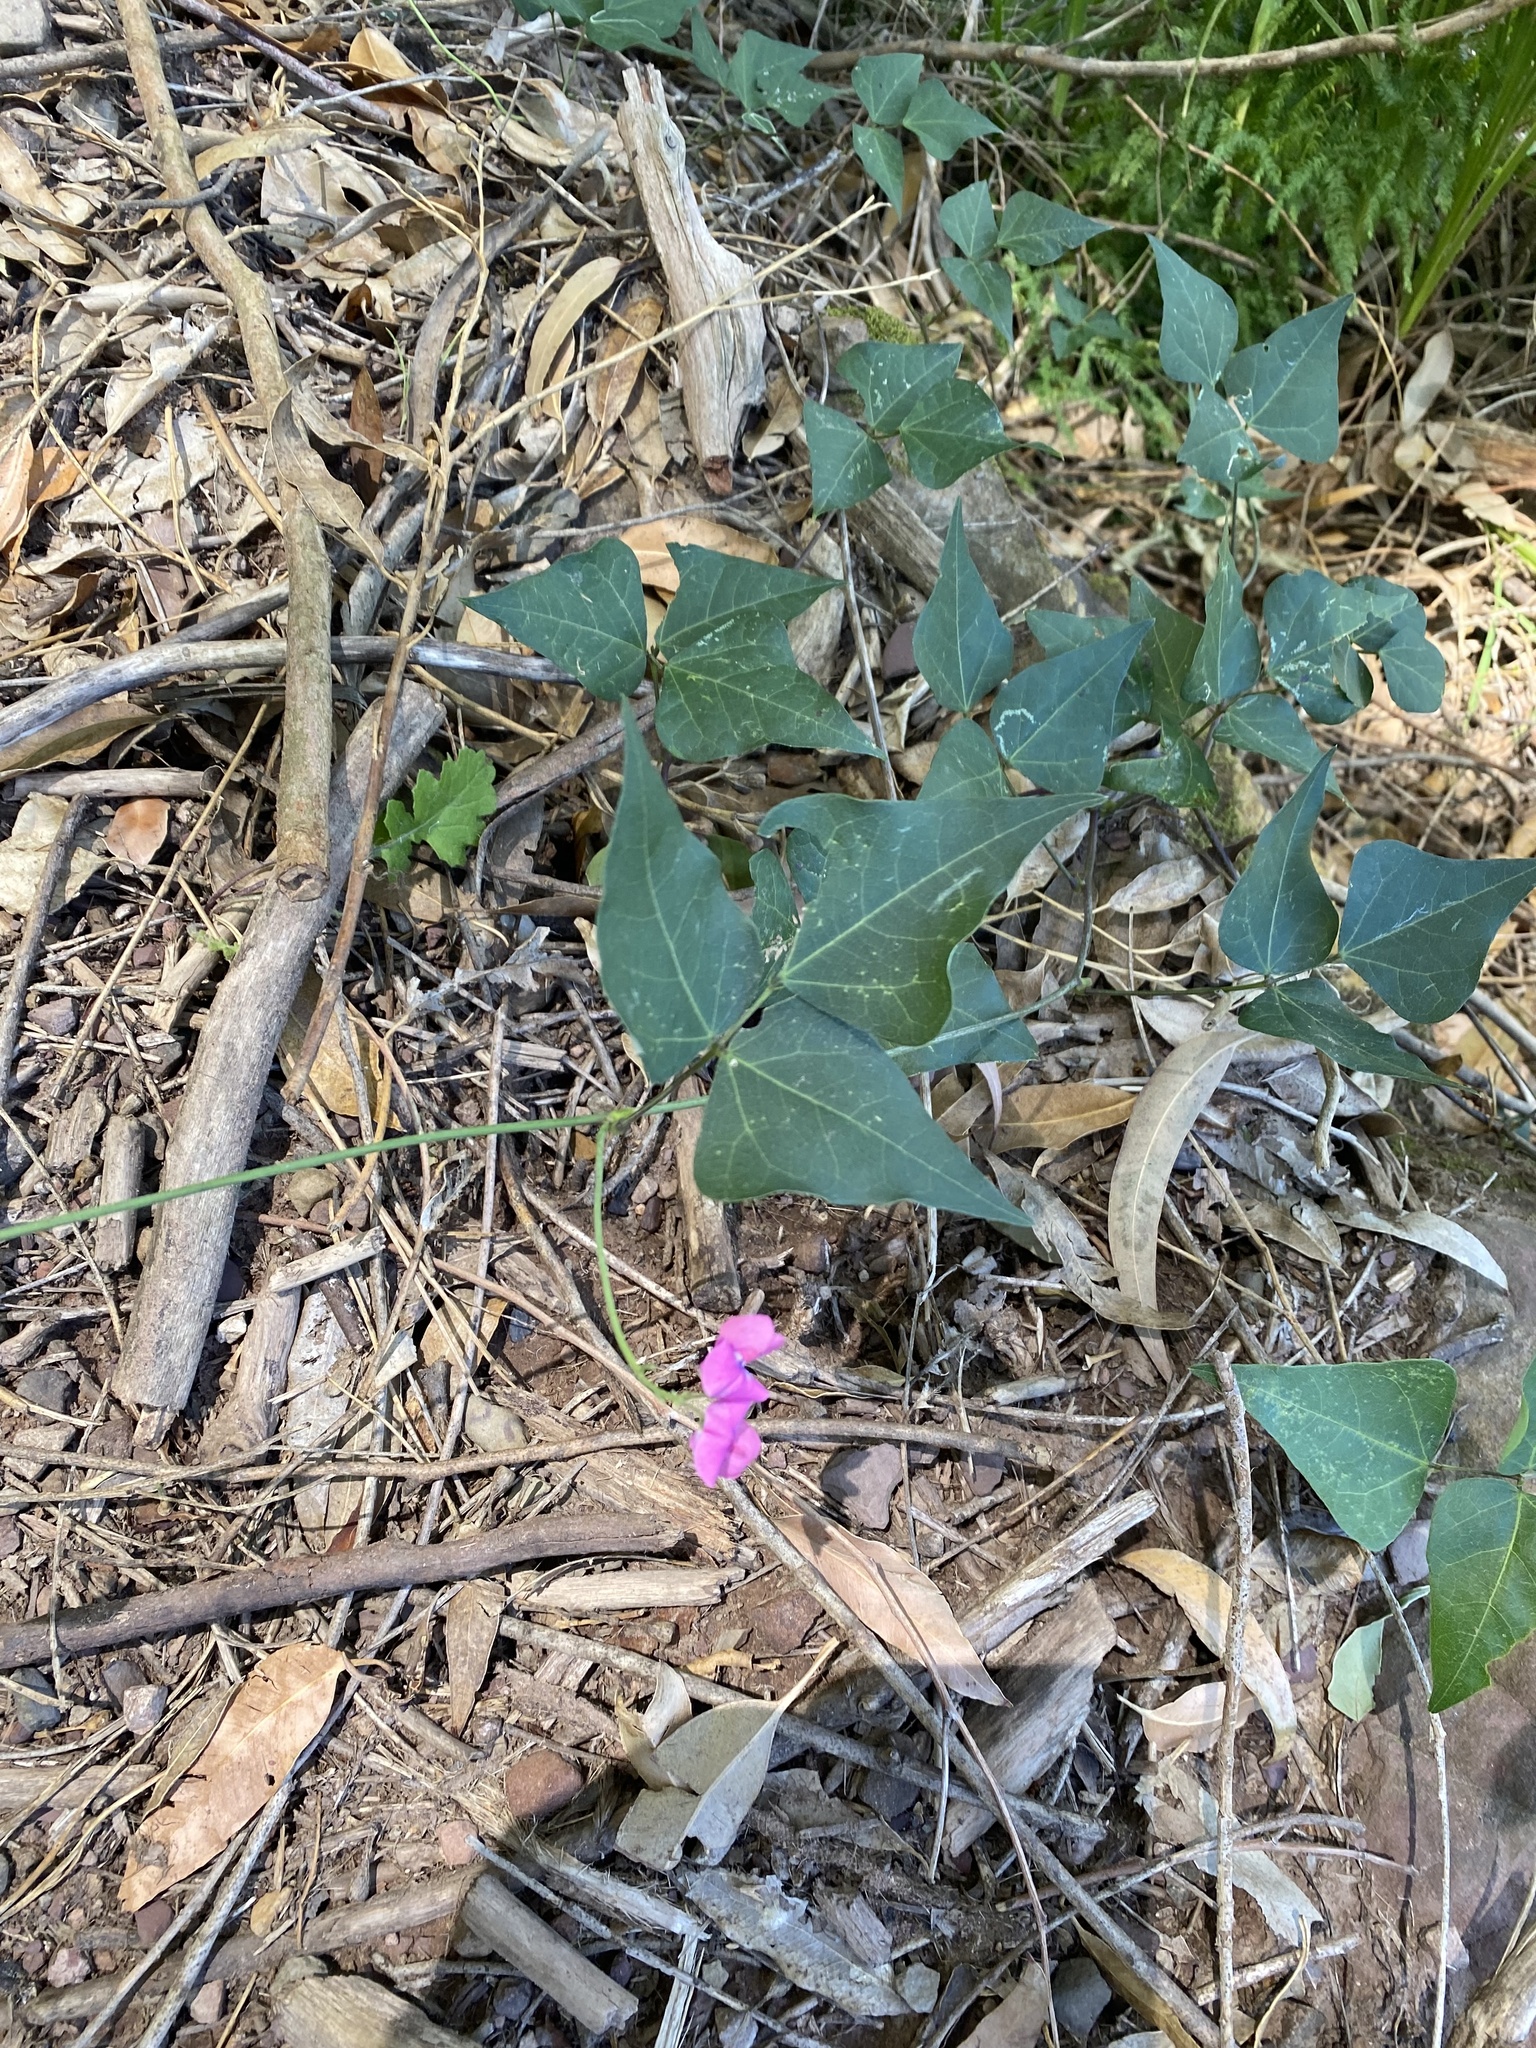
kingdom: Plantae
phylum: Tracheophyta
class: Magnoliopsida
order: Fabales
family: Fabaceae
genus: Dipogon
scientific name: Dipogon lignosus
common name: Okie bean
